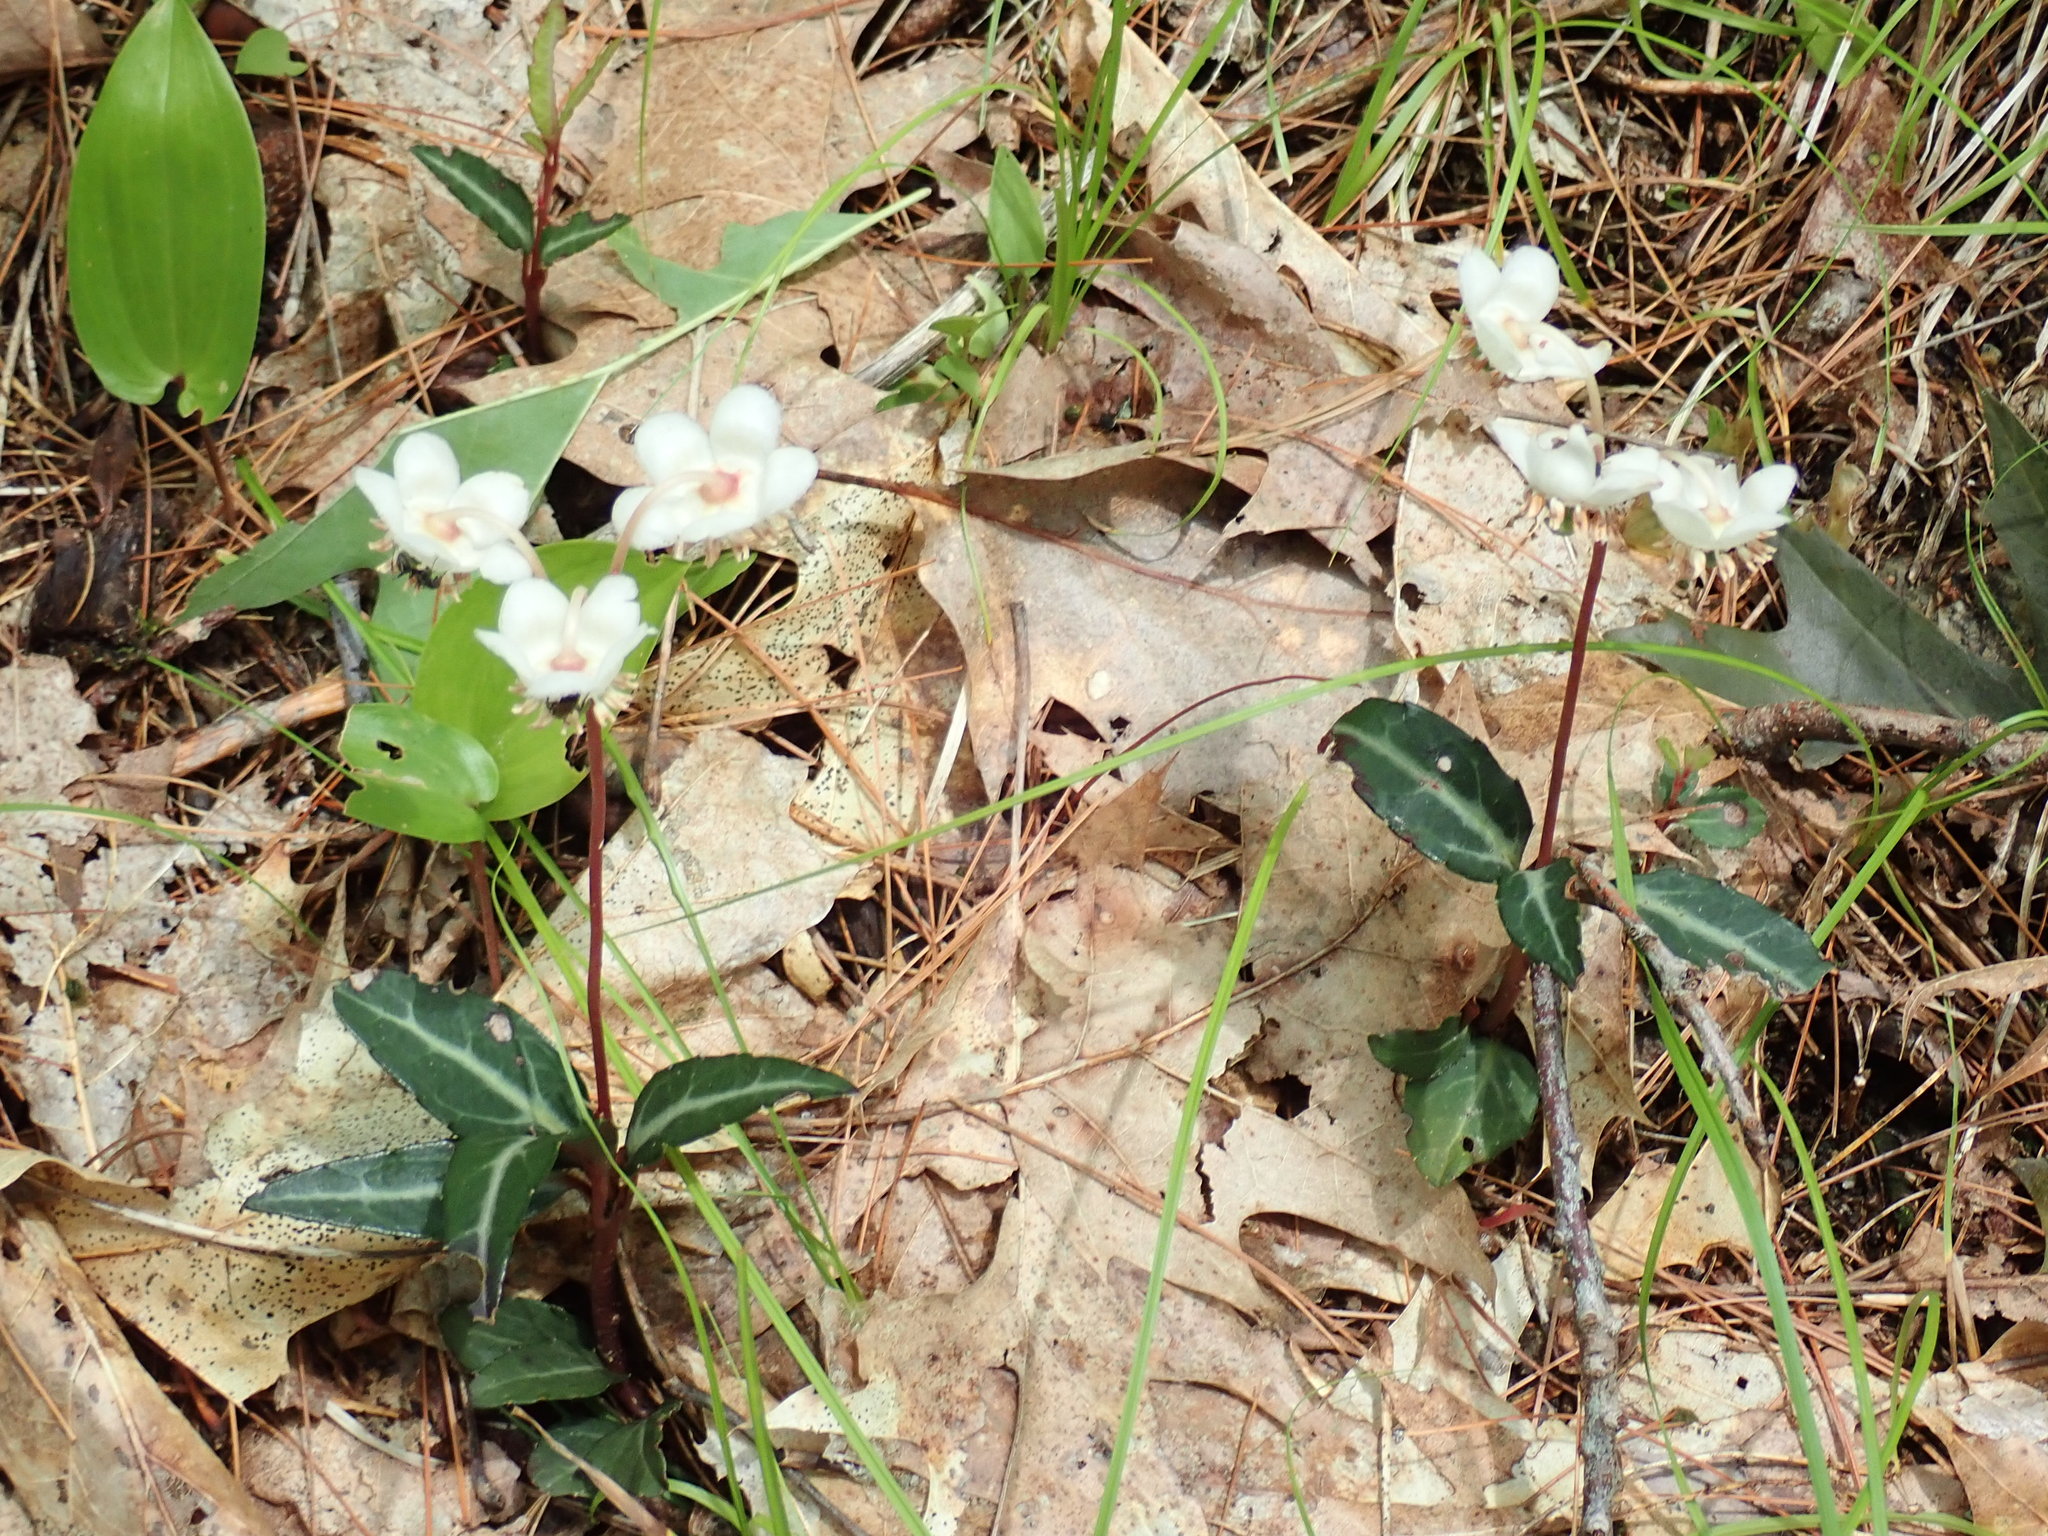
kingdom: Plantae
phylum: Tracheophyta
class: Magnoliopsida
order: Ericales
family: Ericaceae
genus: Chimaphila
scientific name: Chimaphila maculata
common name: Spotted pipsissewa
